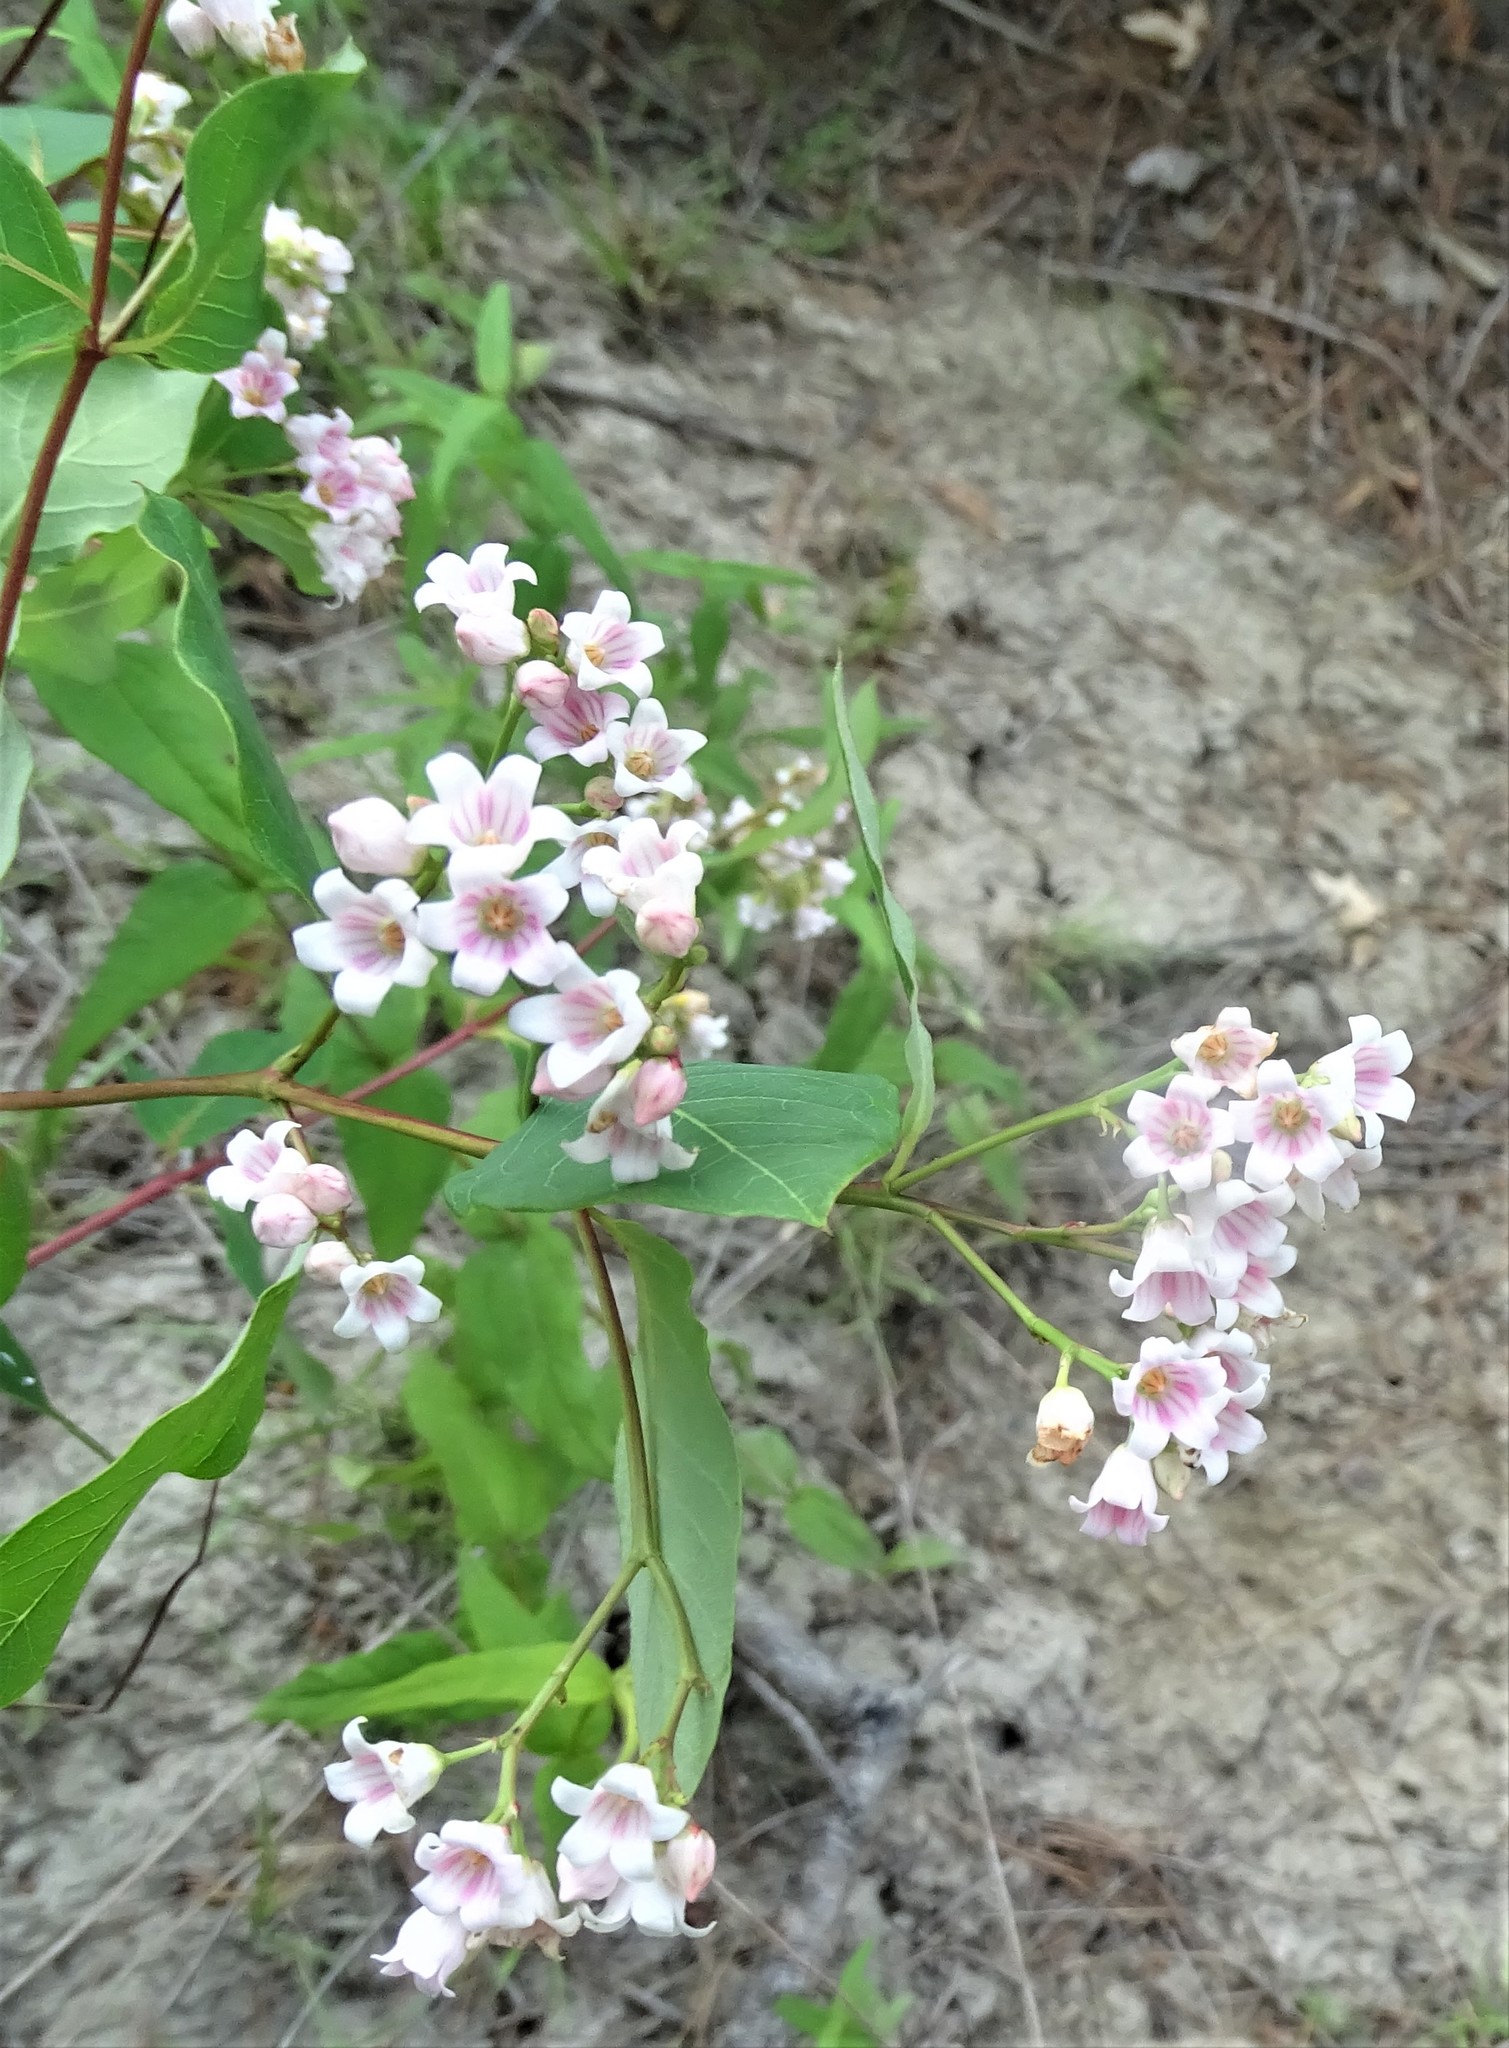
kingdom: Plantae
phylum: Tracheophyta
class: Magnoliopsida
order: Gentianales
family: Apocynaceae
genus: Apocynum
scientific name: Apocynum androsaemifolium
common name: Spreading dogbane
